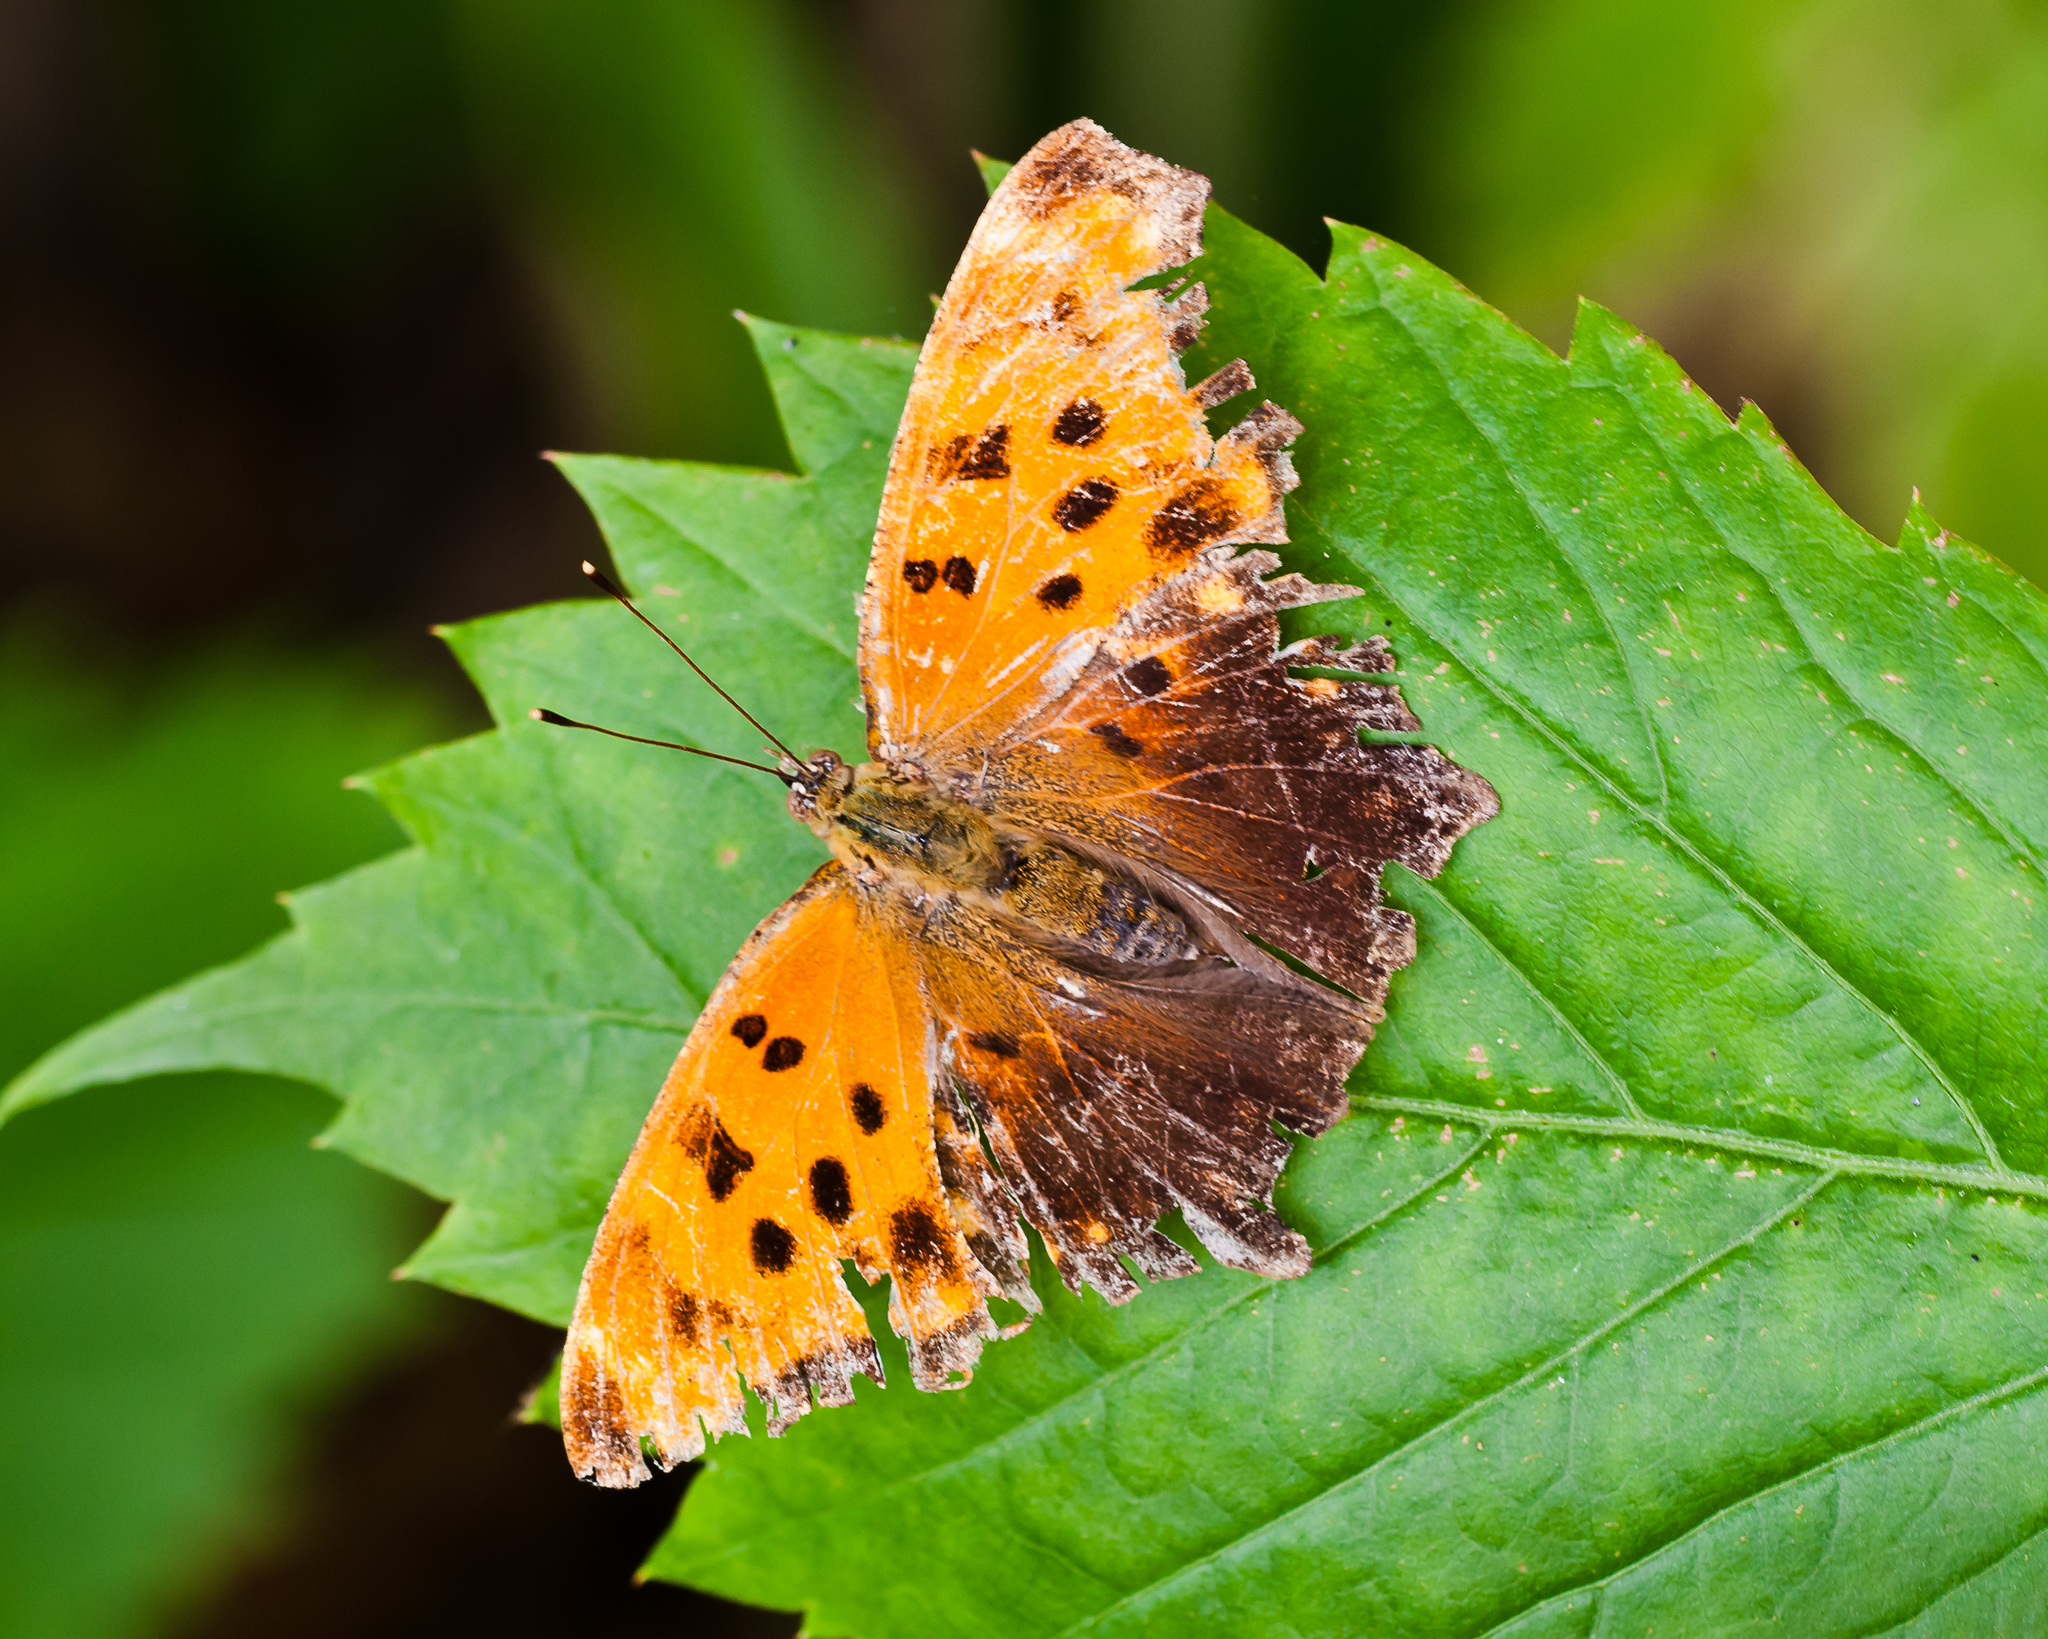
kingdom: Animalia
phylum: Arthropoda
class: Insecta
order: Lepidoptera
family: Nymphalidae
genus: Polygonia
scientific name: Polygonia comma
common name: Eastern comma
